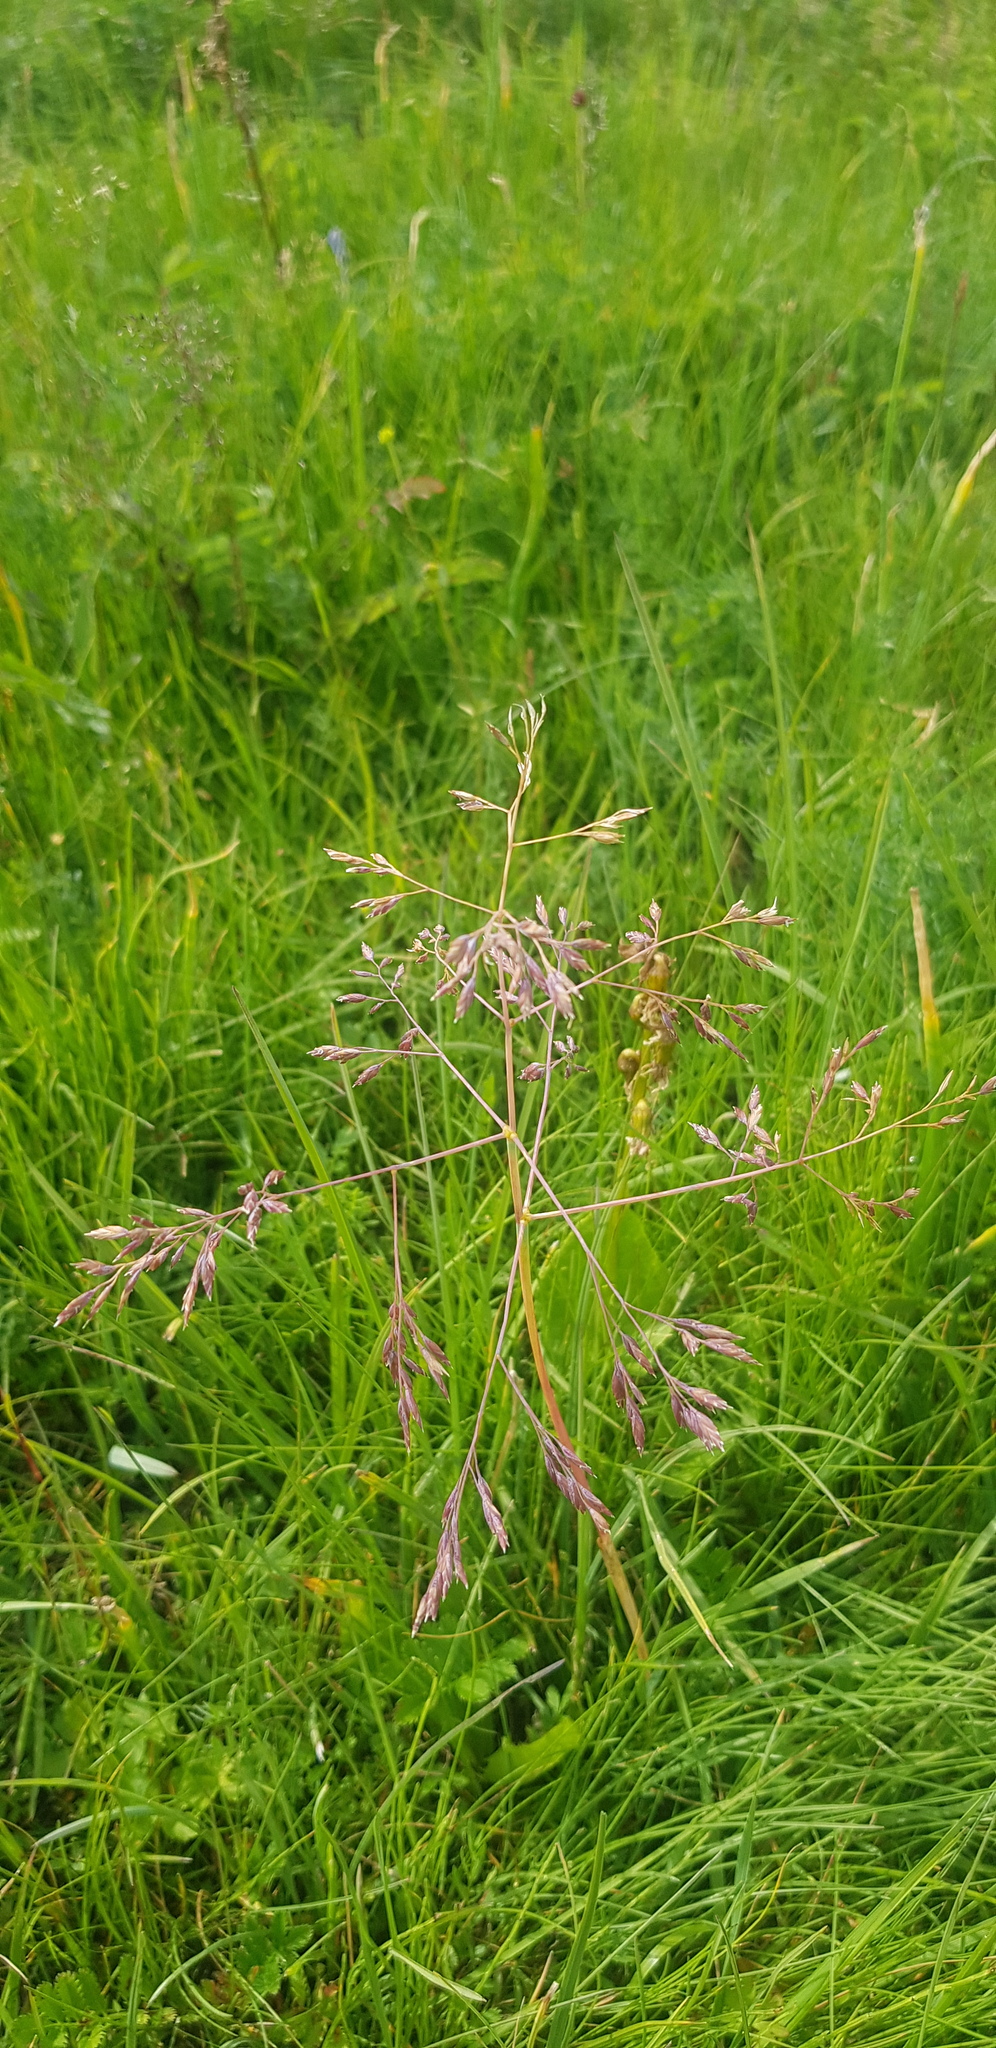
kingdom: Plantae
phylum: Tracheophyta
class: Liliopsida
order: Poales
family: Poaceae
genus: Poa
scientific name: Poa subfastigiata
